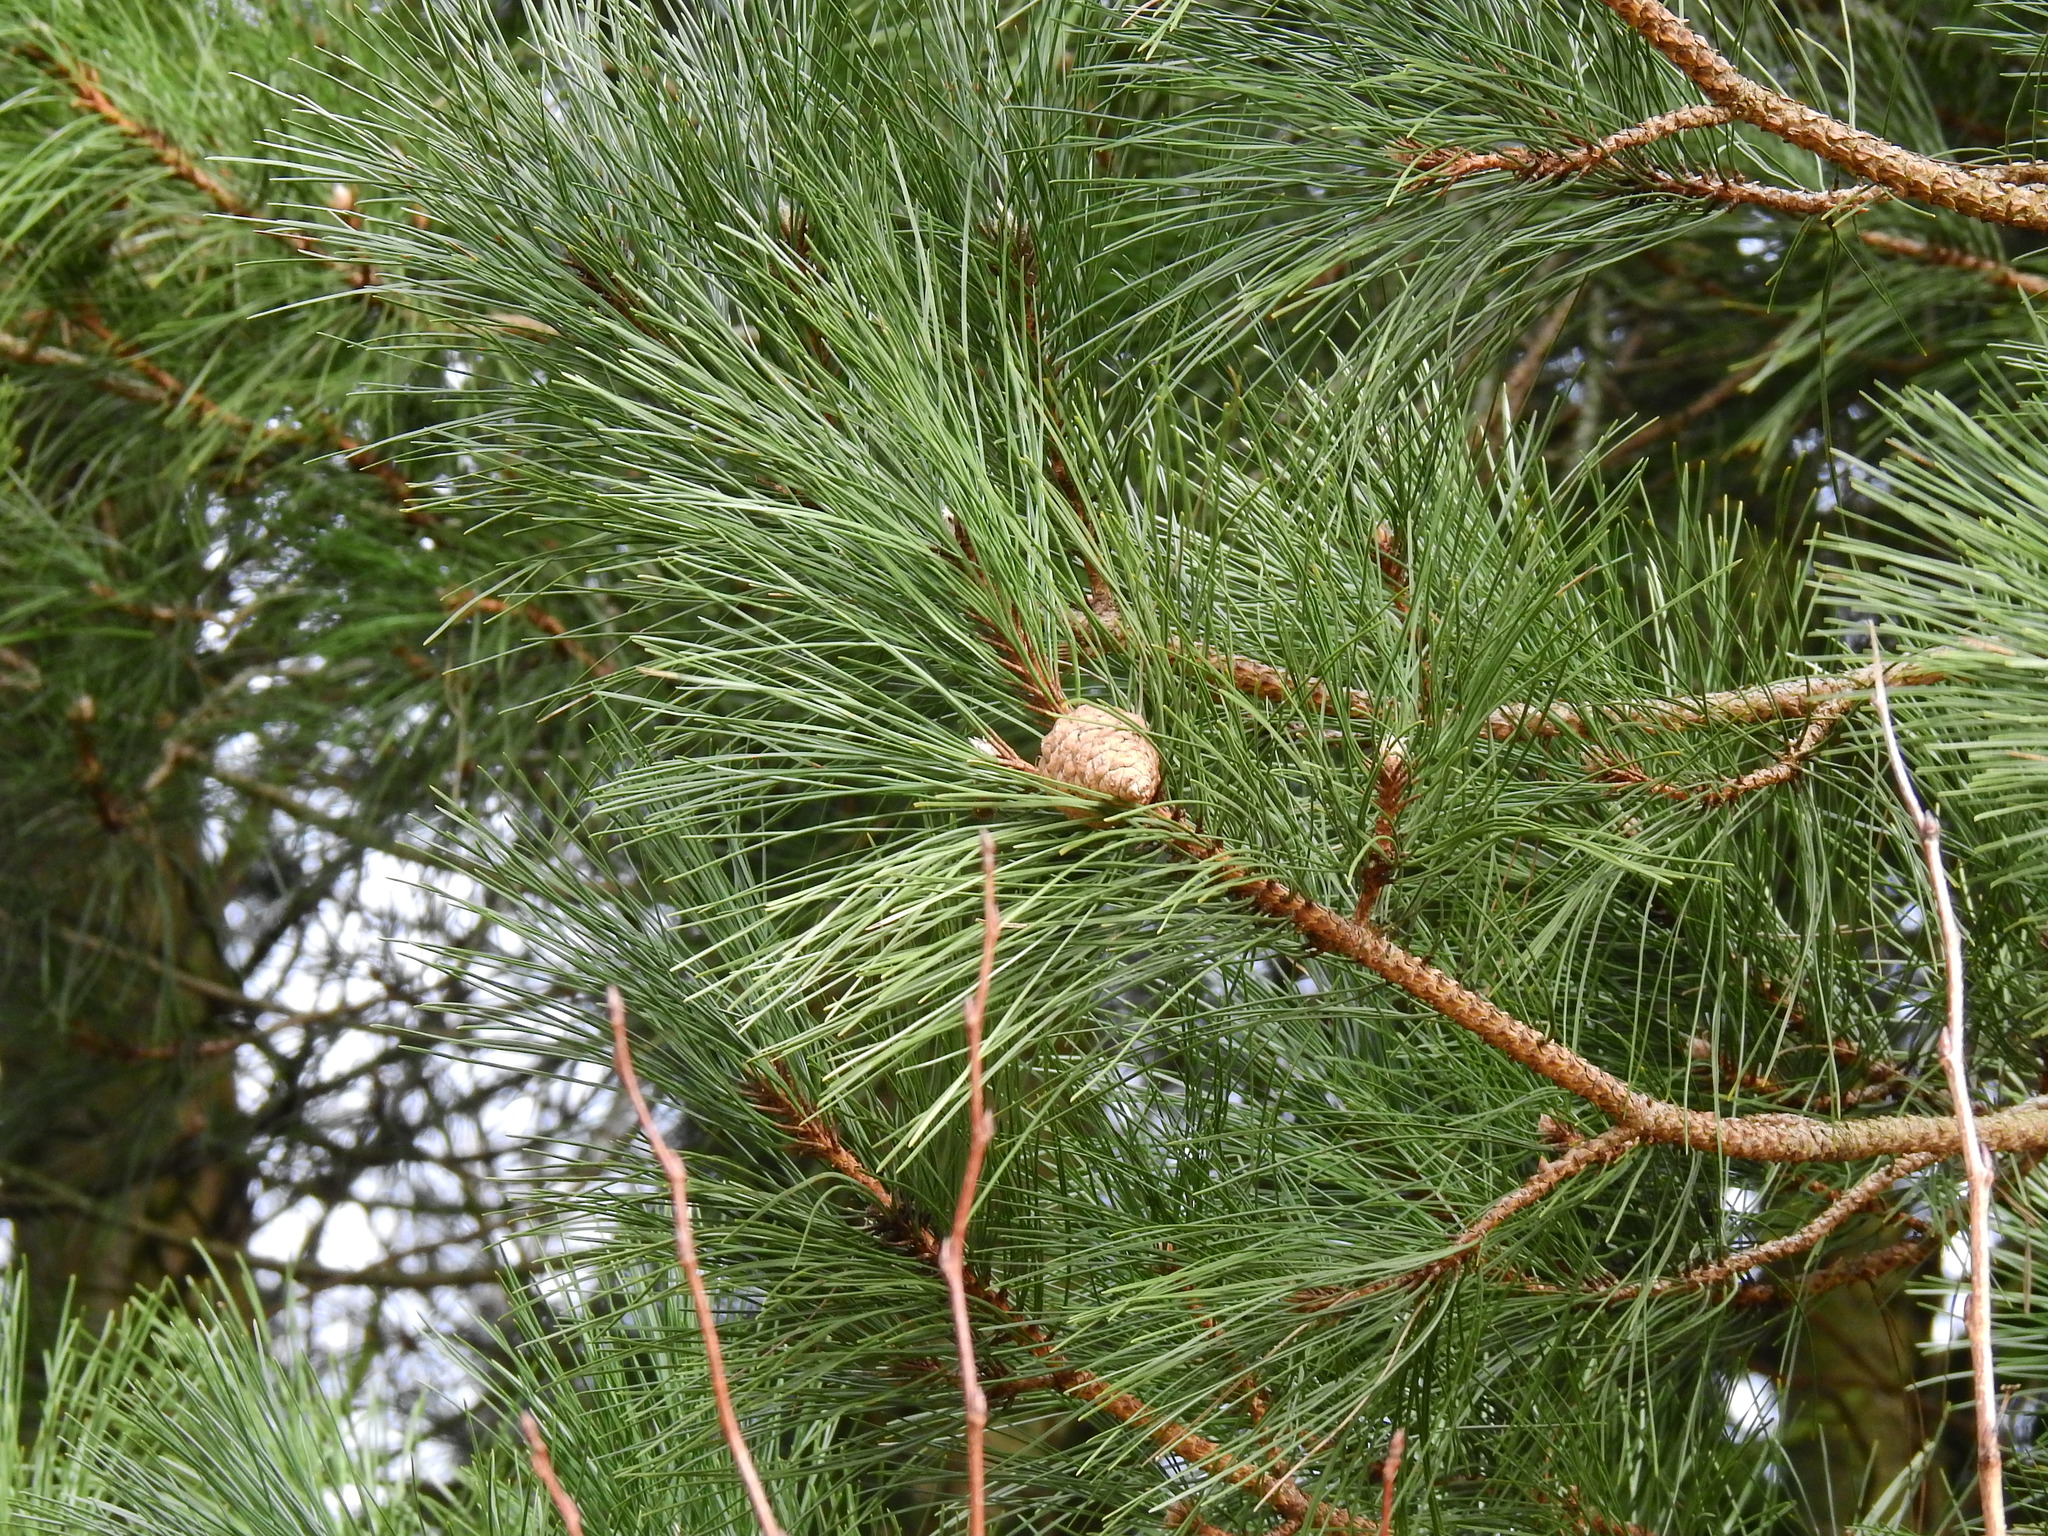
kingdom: Plantae
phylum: Tracheophyta
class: Pinopsida
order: Pinales
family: Pinaceae
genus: Pinus
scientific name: Pinus nigra
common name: Austrian pine
